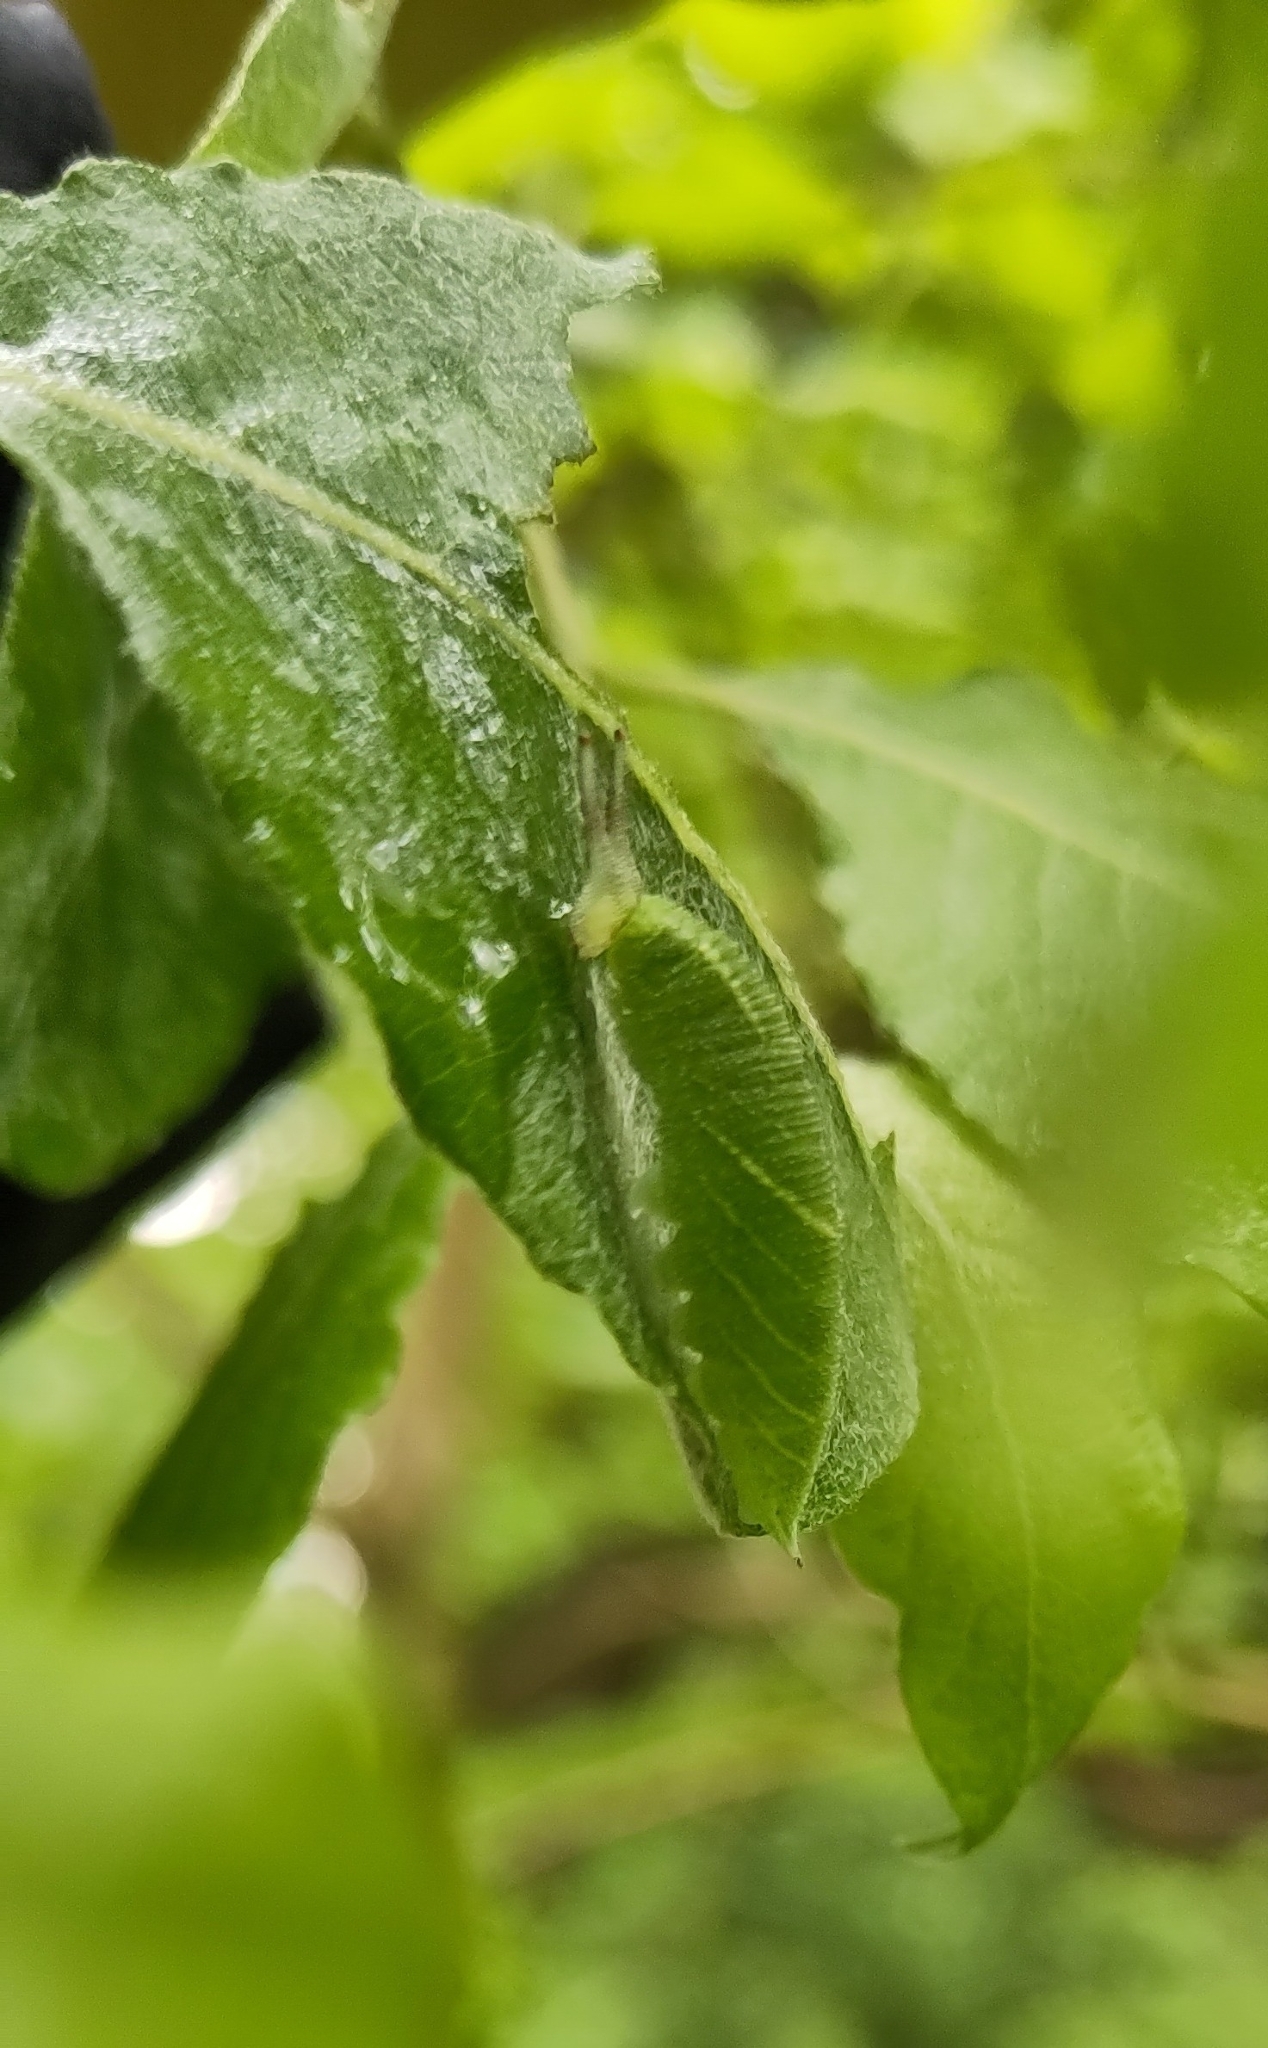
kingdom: Animalia
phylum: Arthropoda
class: Insecta
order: Lepidoptera
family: Nymphalidae
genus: Apatura
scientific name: Apatura iris
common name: Purple emperor
